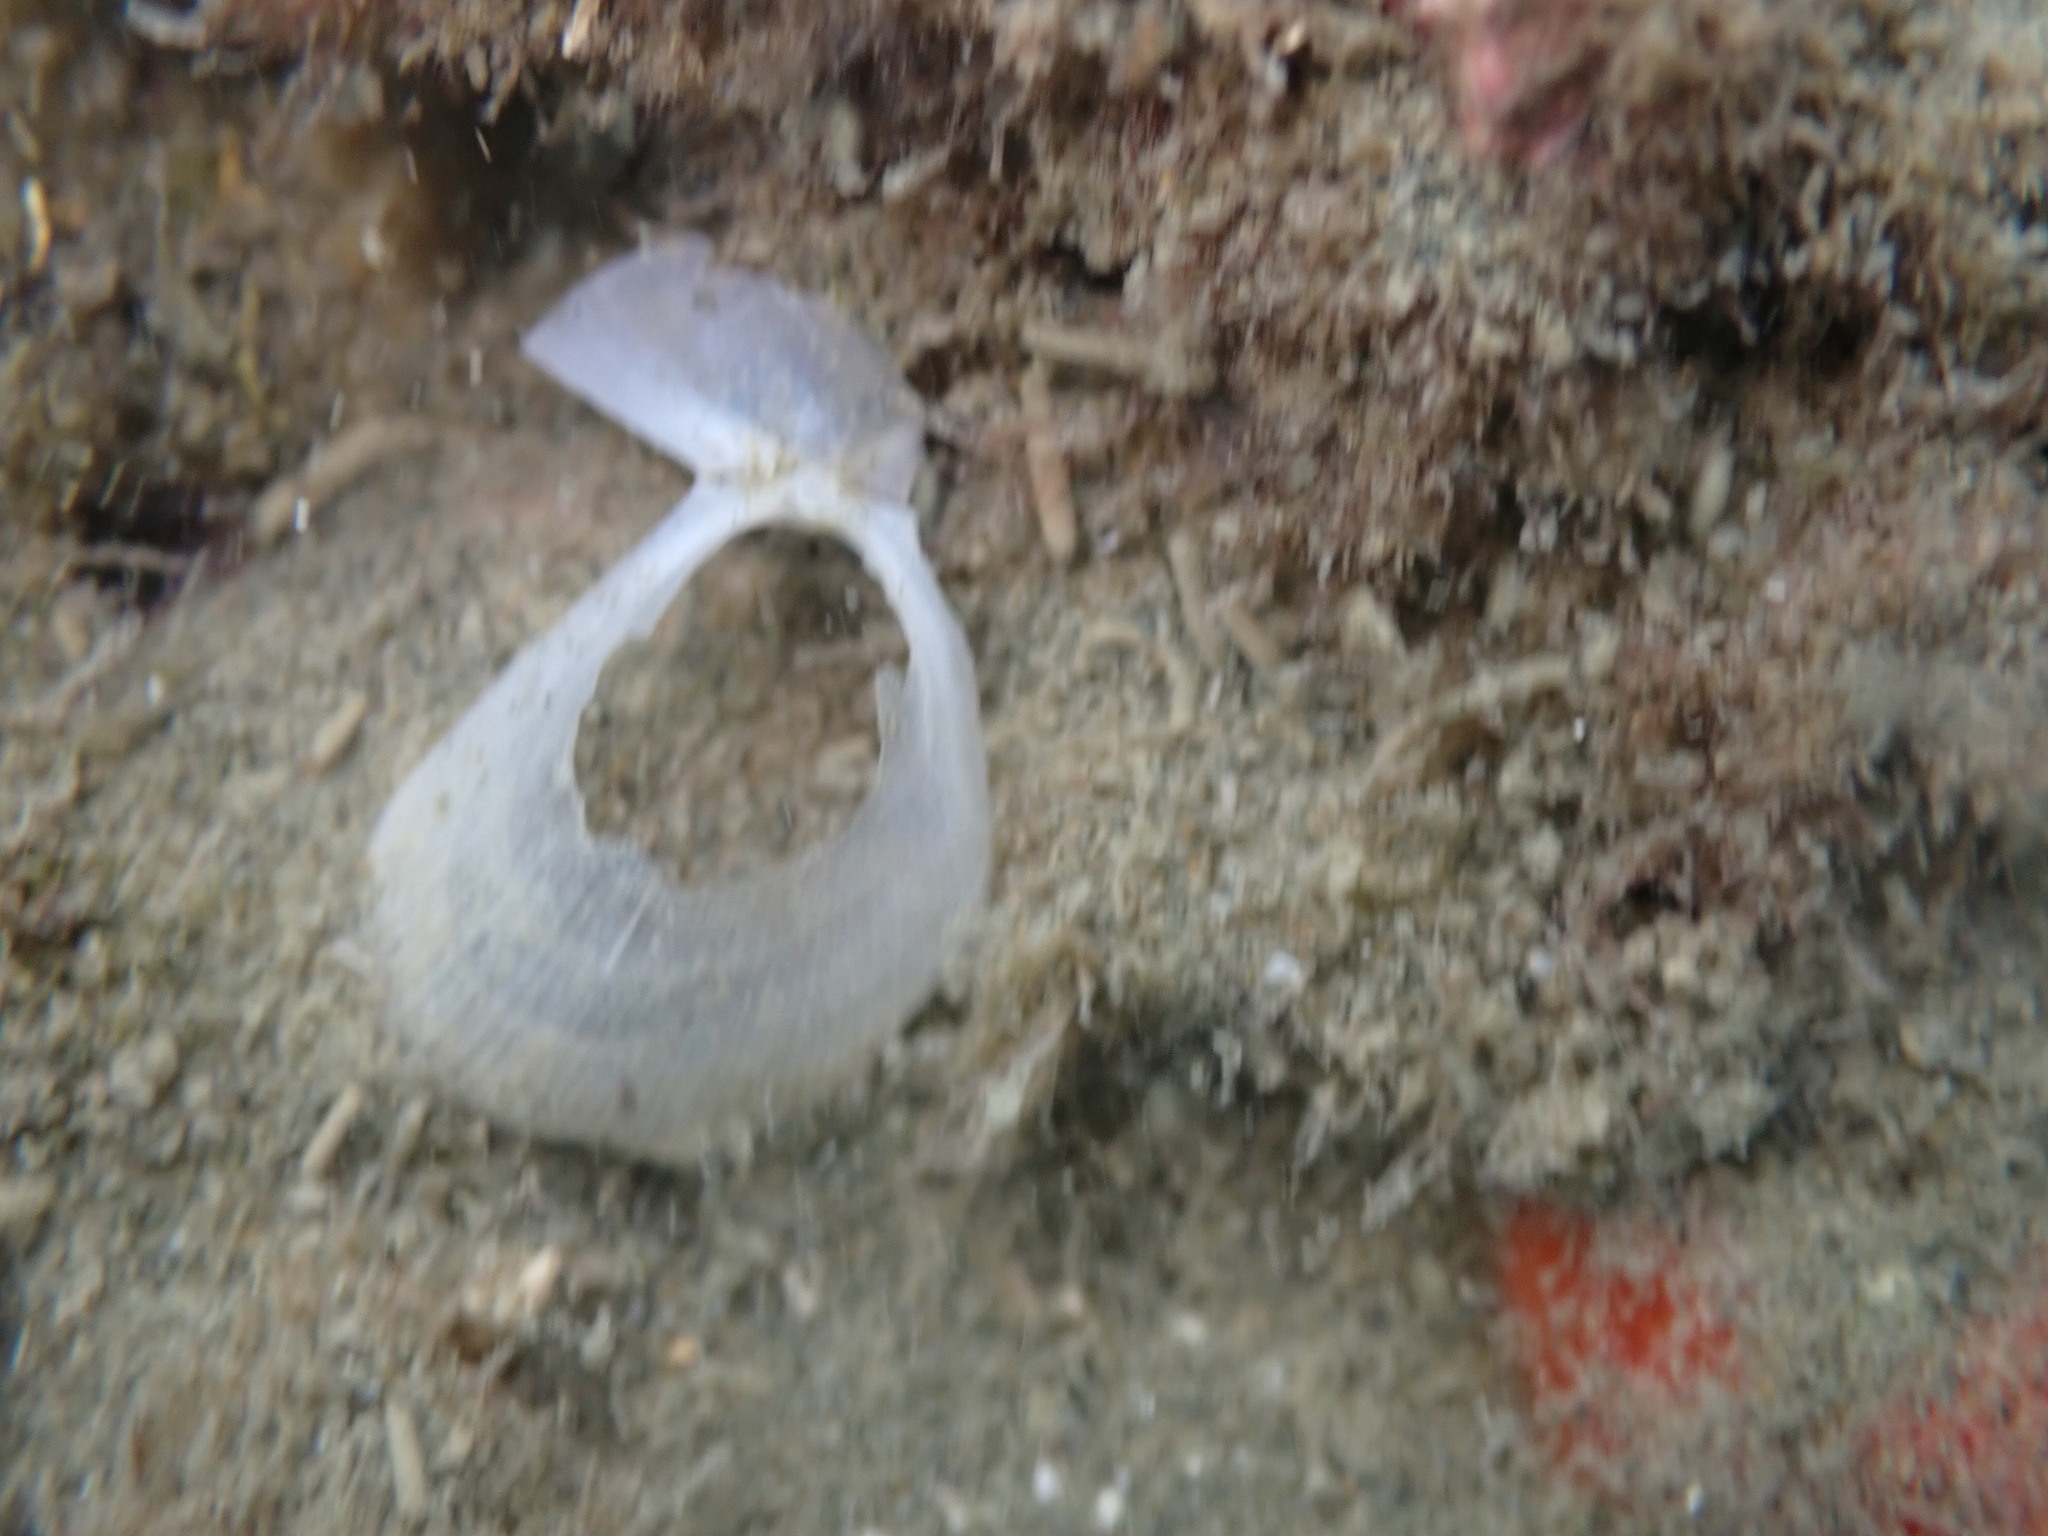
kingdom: Animalia
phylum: Mollusca
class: Bivalvia
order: Limida
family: Limidae
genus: Limaria
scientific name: Limaria orientalis
